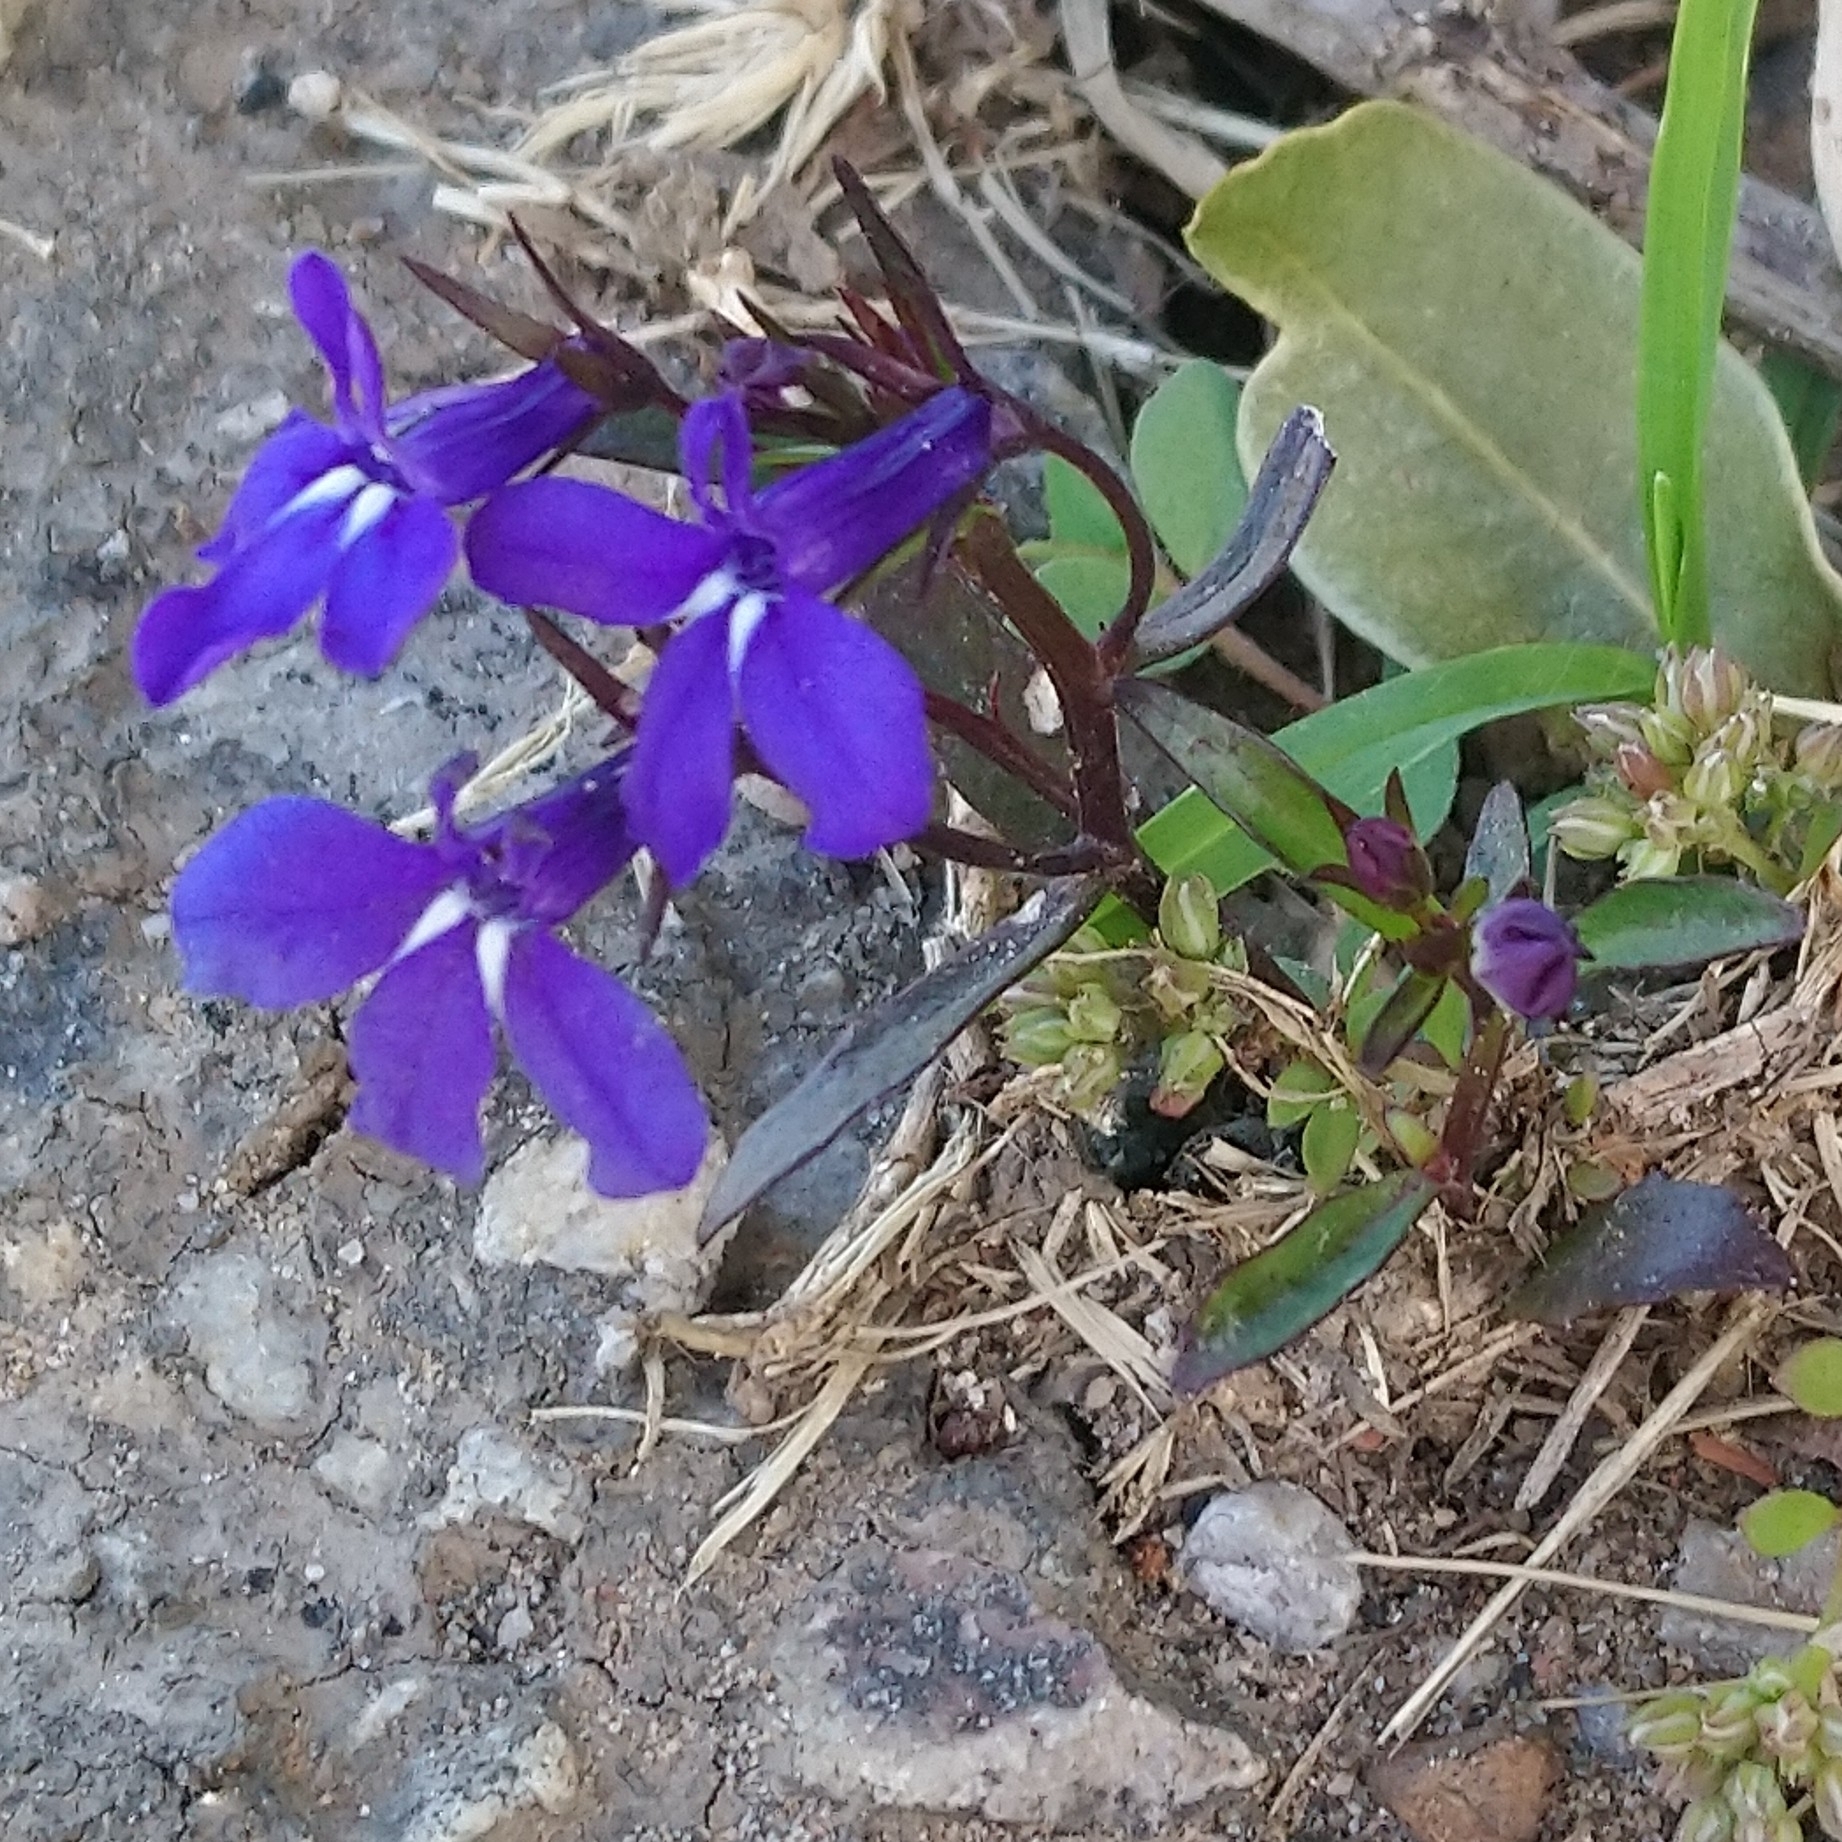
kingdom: Plantae
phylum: Tracheophyta
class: Magnoliopsida
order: Asterales
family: Campanulaceae
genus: Lobelia
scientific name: Lobelia erinus
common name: Edging lobelia
